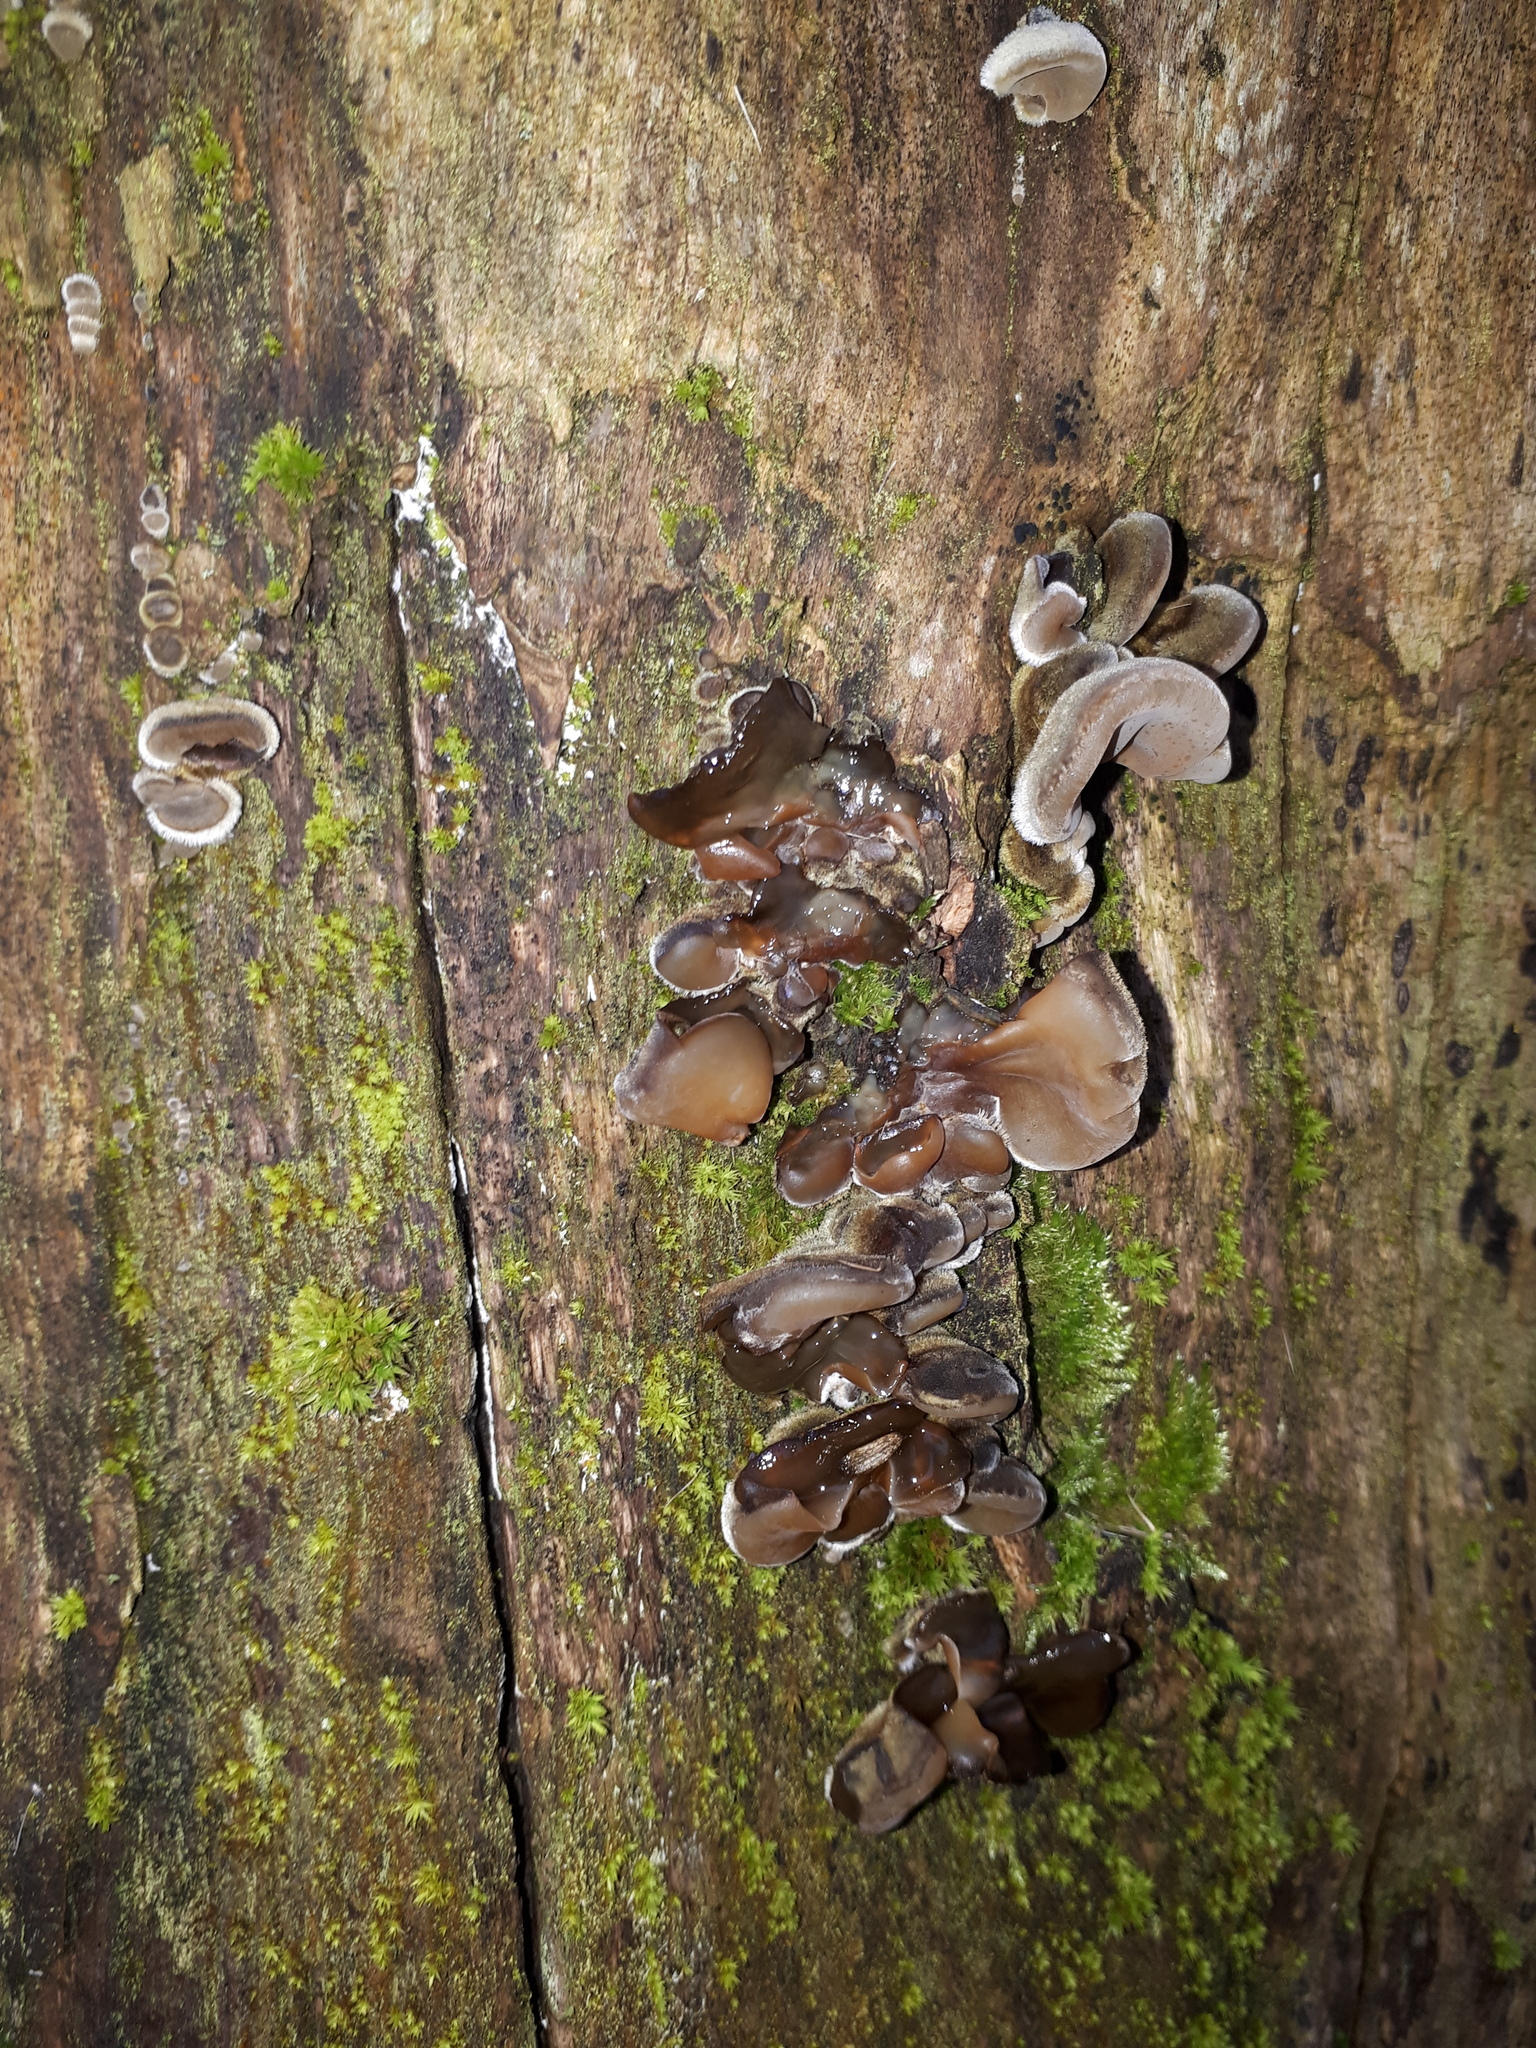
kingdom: Fungi
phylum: Basidiomycota
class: Agaricomycetes
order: Auriculariales
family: Auriculariaceae
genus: Auricularia
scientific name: Auricularia mesenterica
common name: Tripe fungus
